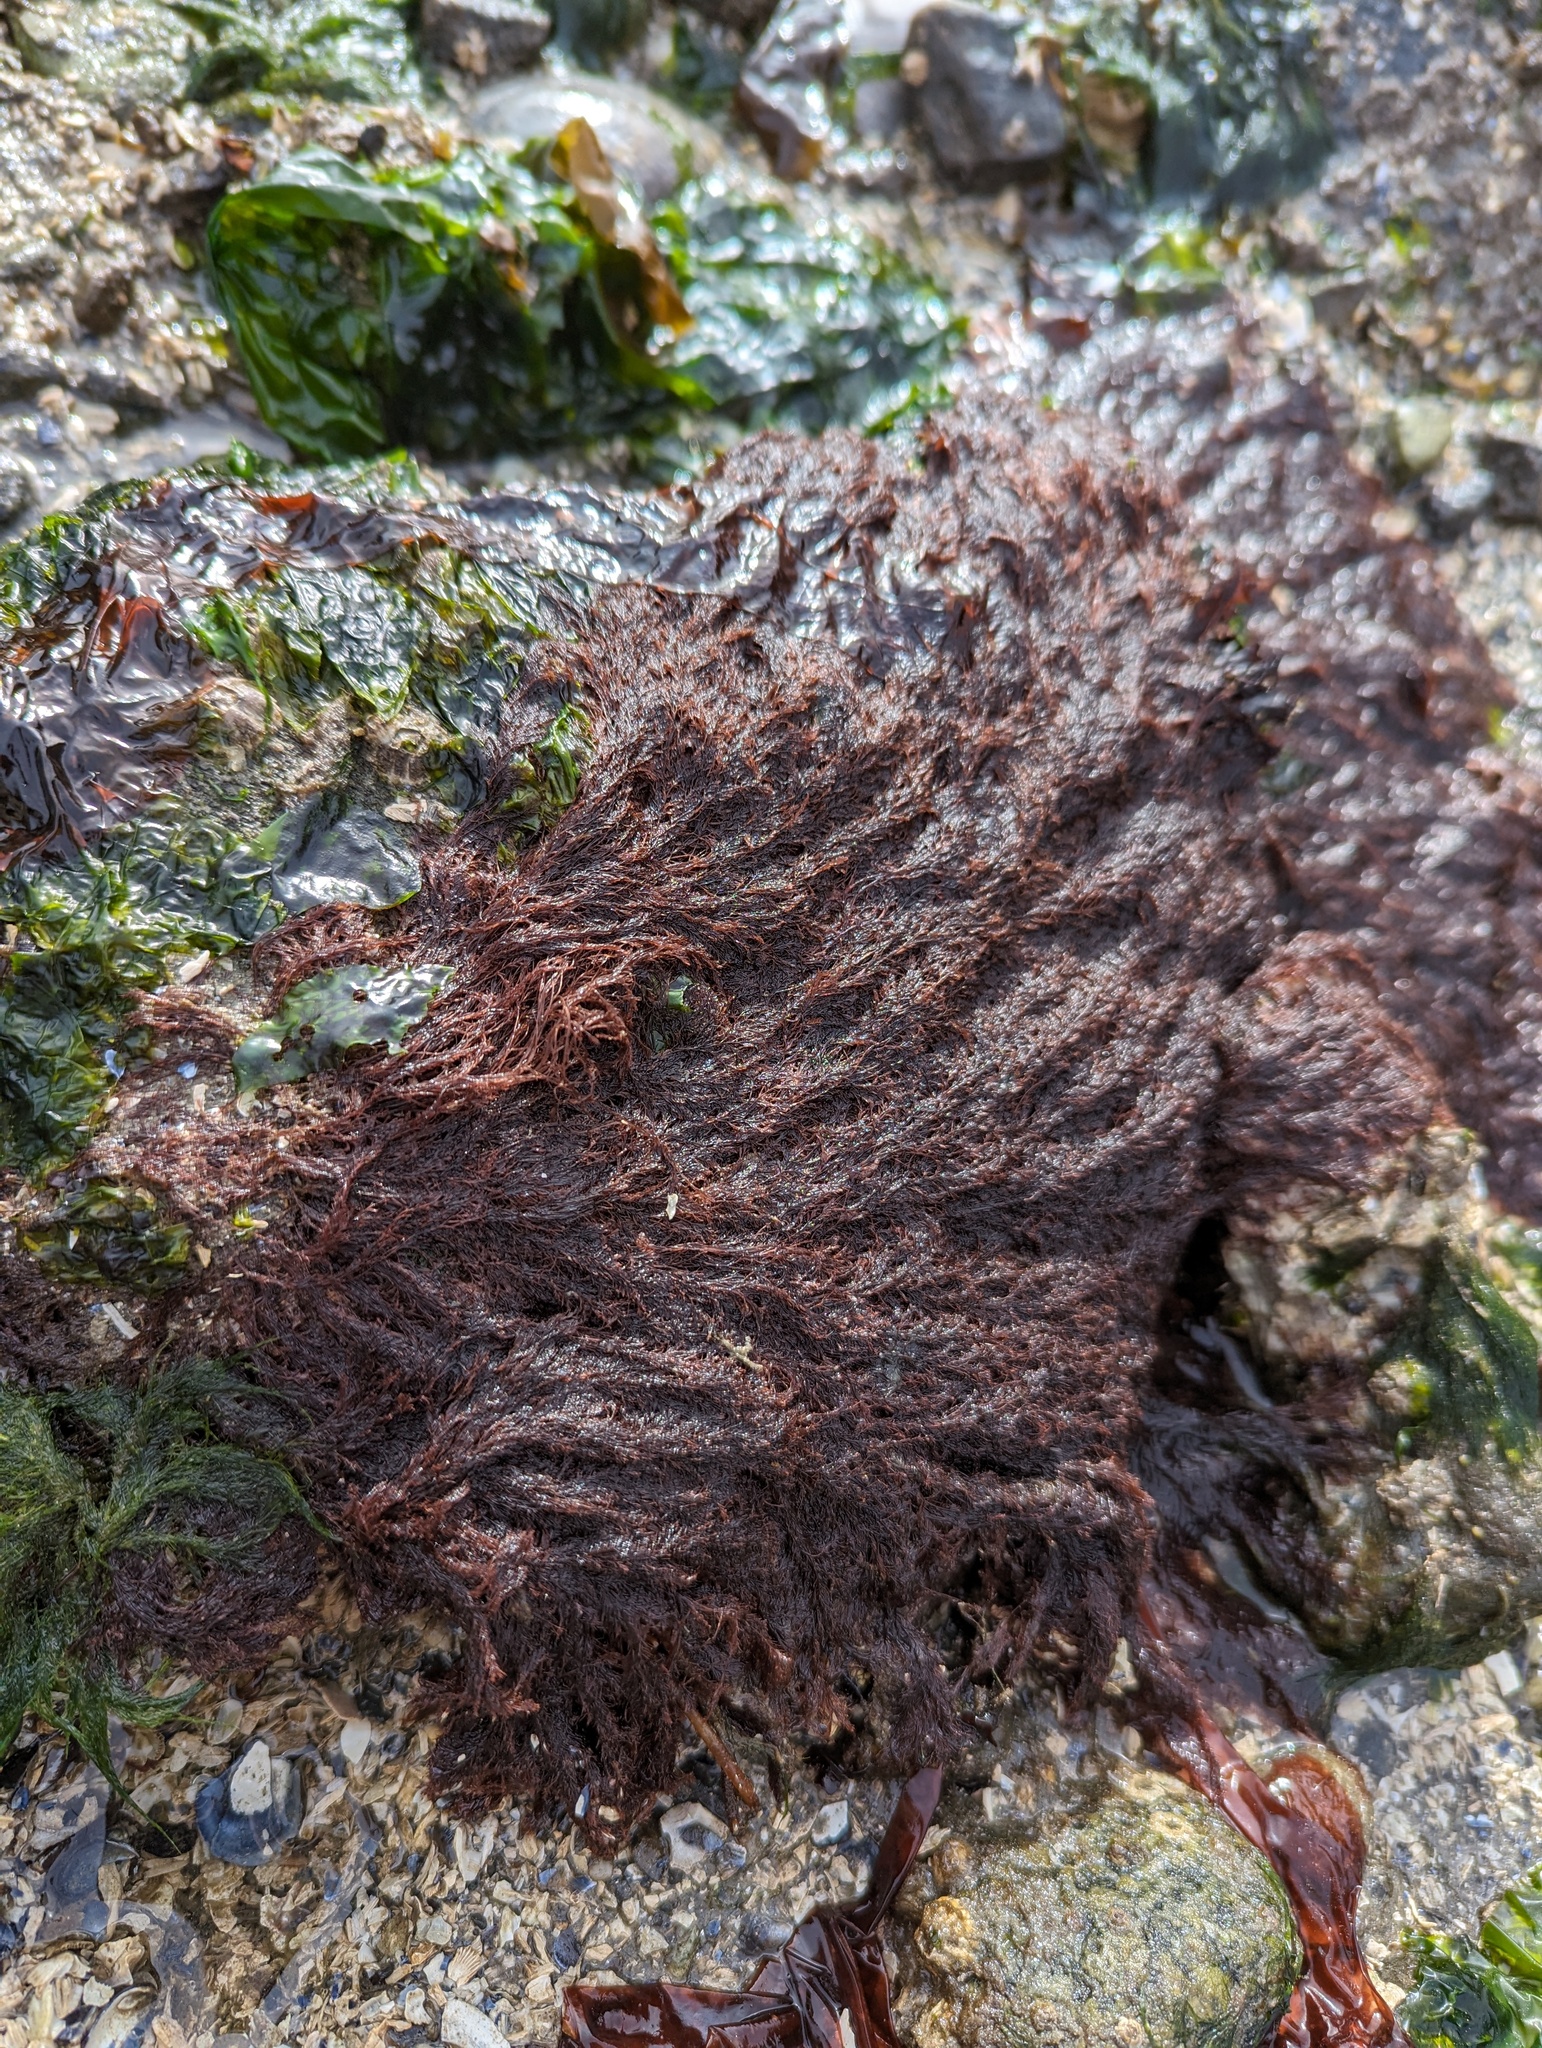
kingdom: Plantae
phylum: Rhodophyta
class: Florideophyceae
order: Ceramiales
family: Rhodomelaceae
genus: Savoiea
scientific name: Savoiea robusta
